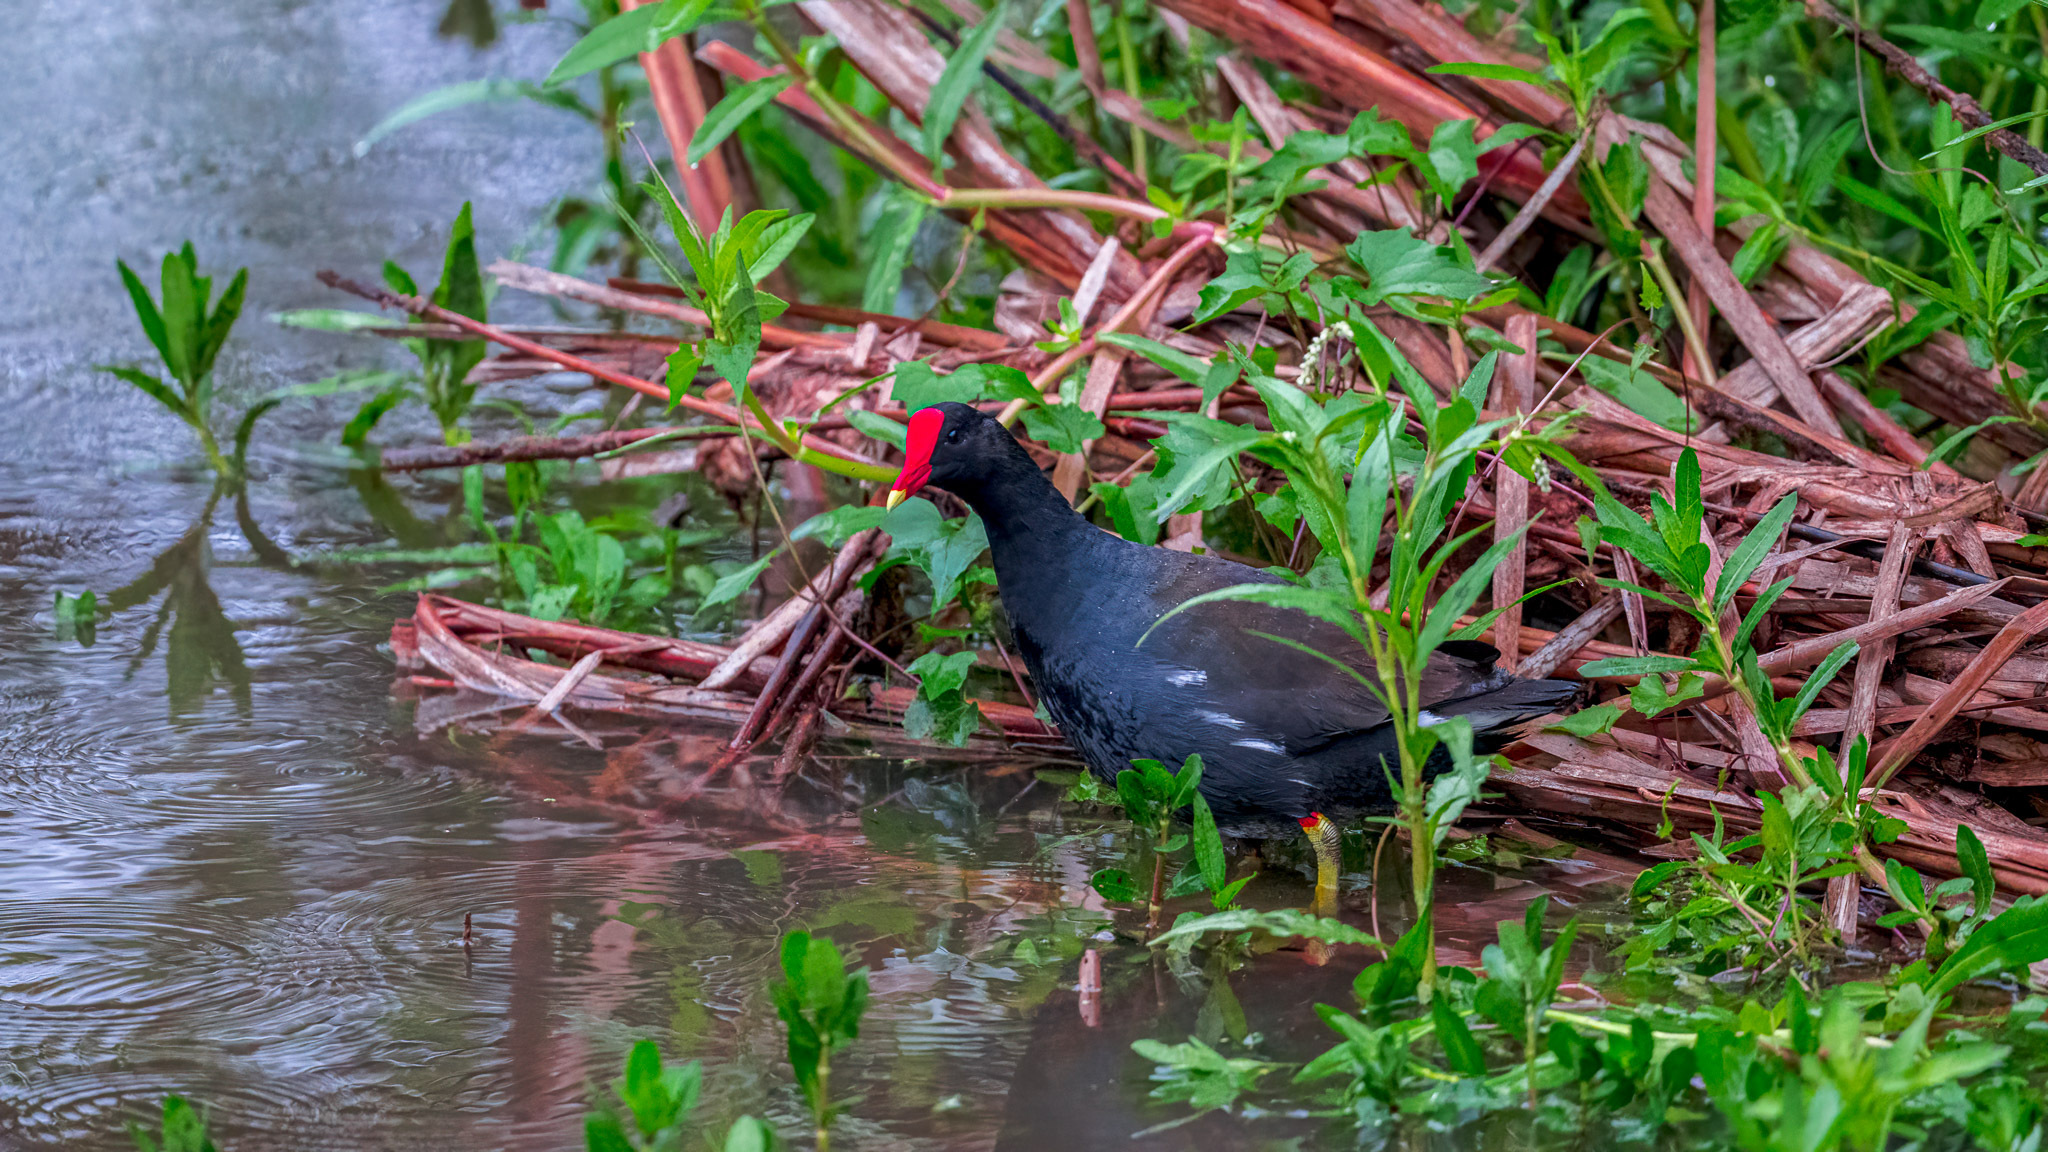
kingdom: Animalia
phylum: Chordata
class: Aves
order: Gruiformes
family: Rallidae
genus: Gallinula
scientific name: Gallinula chloropus
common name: Common moorhen
